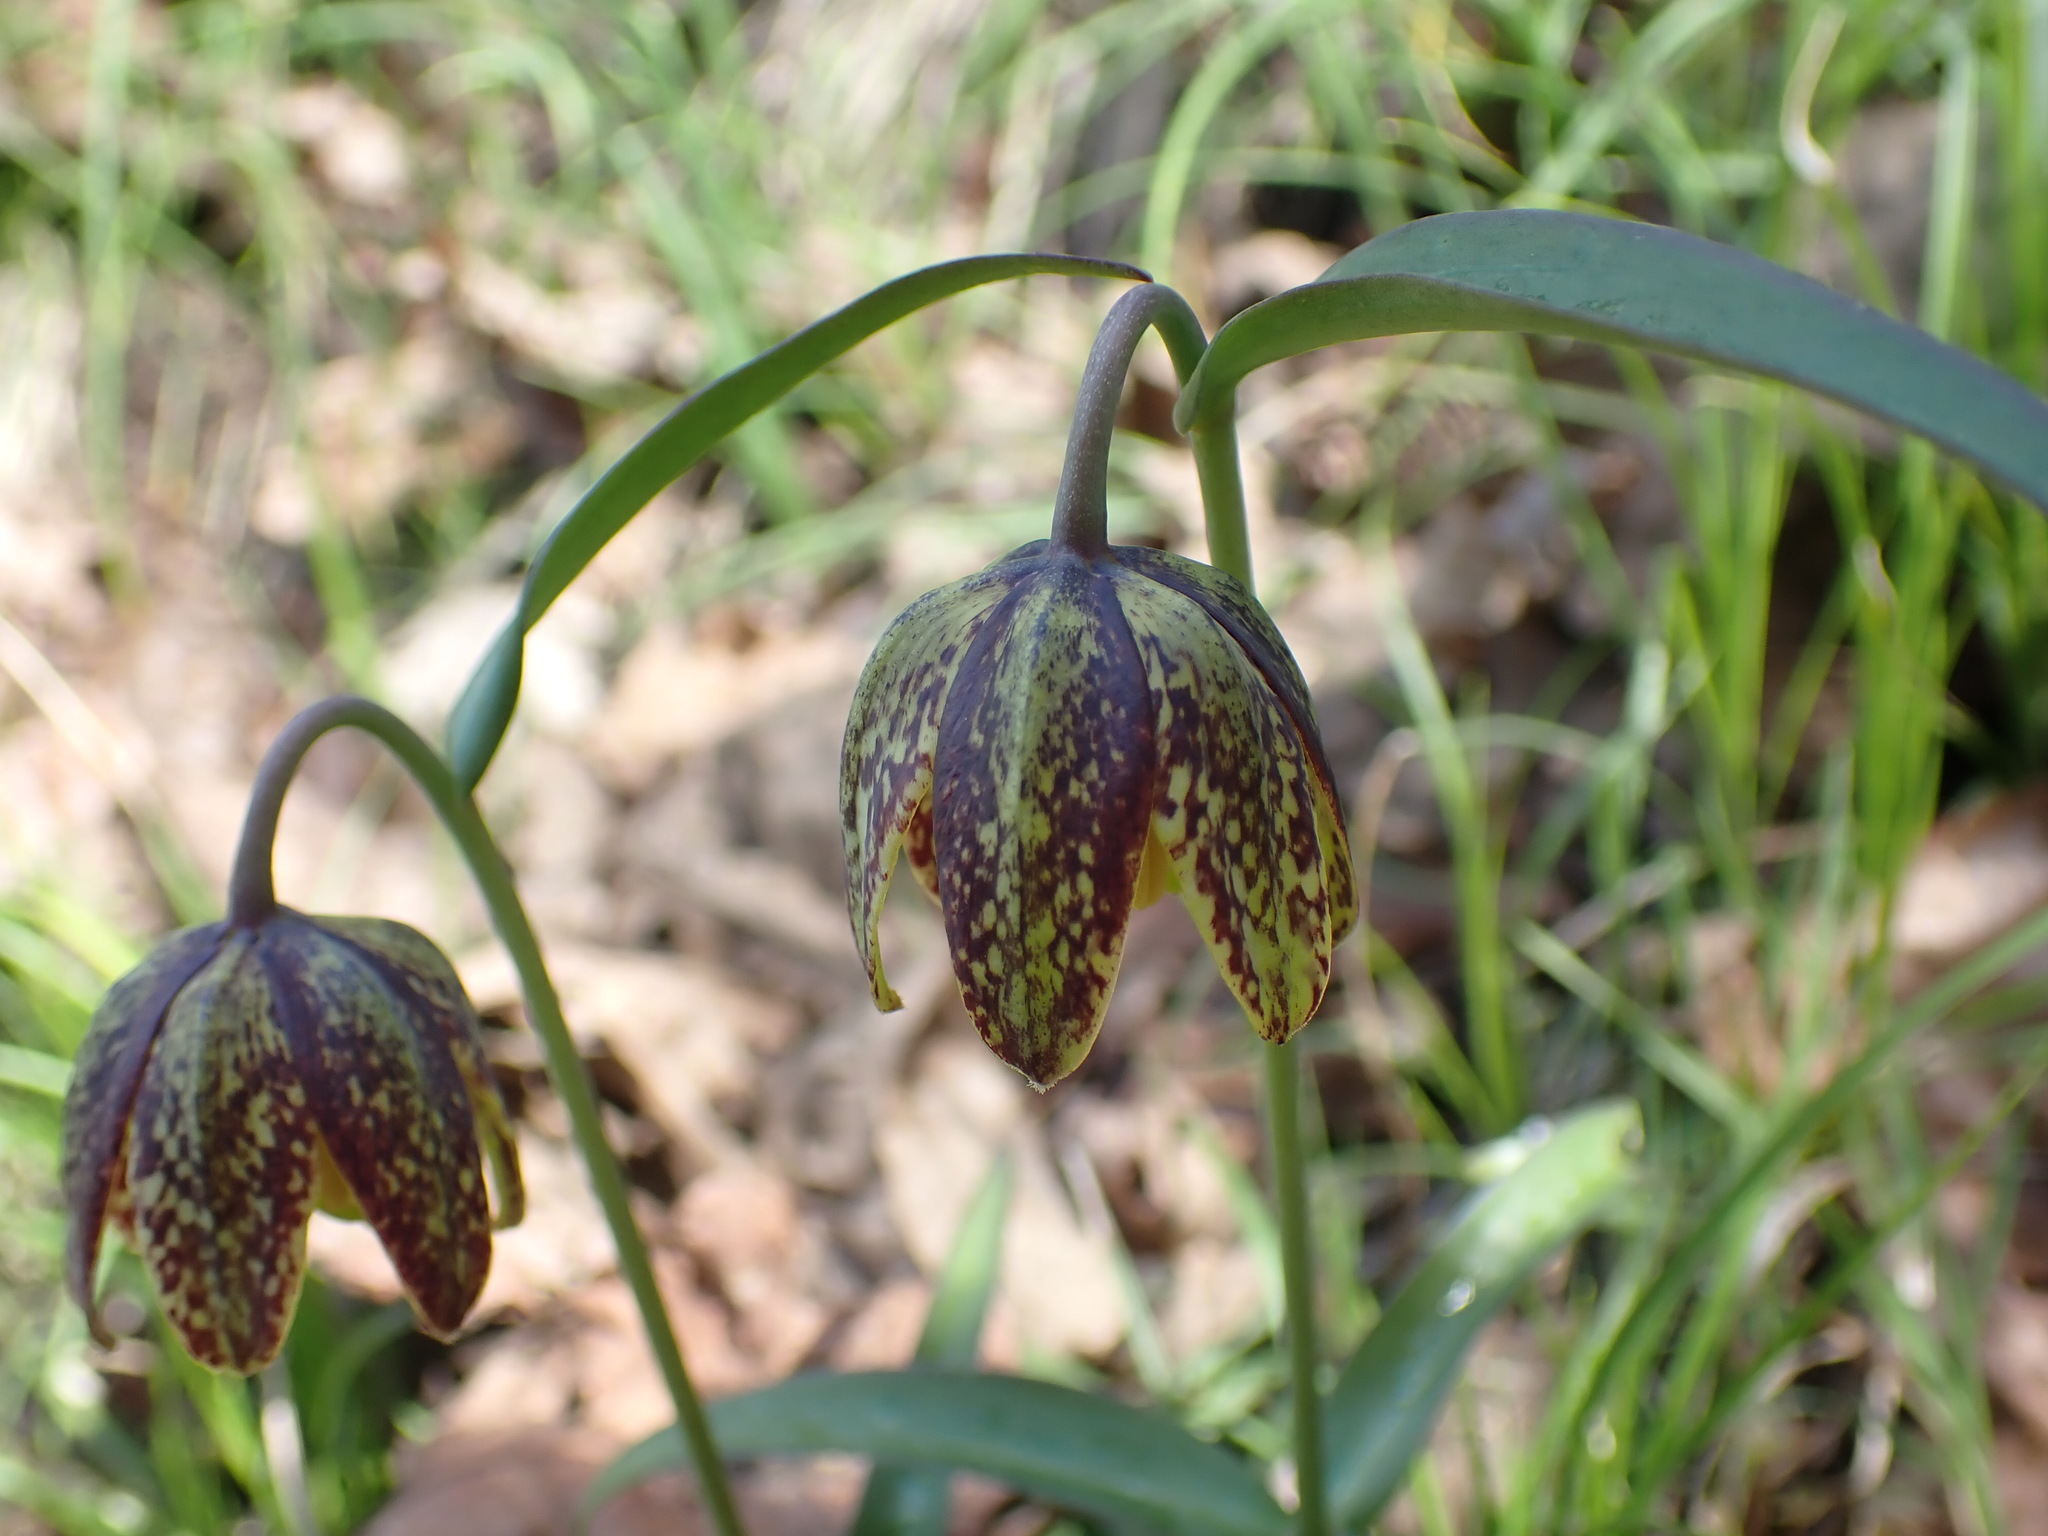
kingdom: Plantae
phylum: Tracheophyta
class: Liliopsida
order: Liliales
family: Liliaceae
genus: Fritillaria
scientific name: Fritillaria affinis
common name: Ojai fritillary
